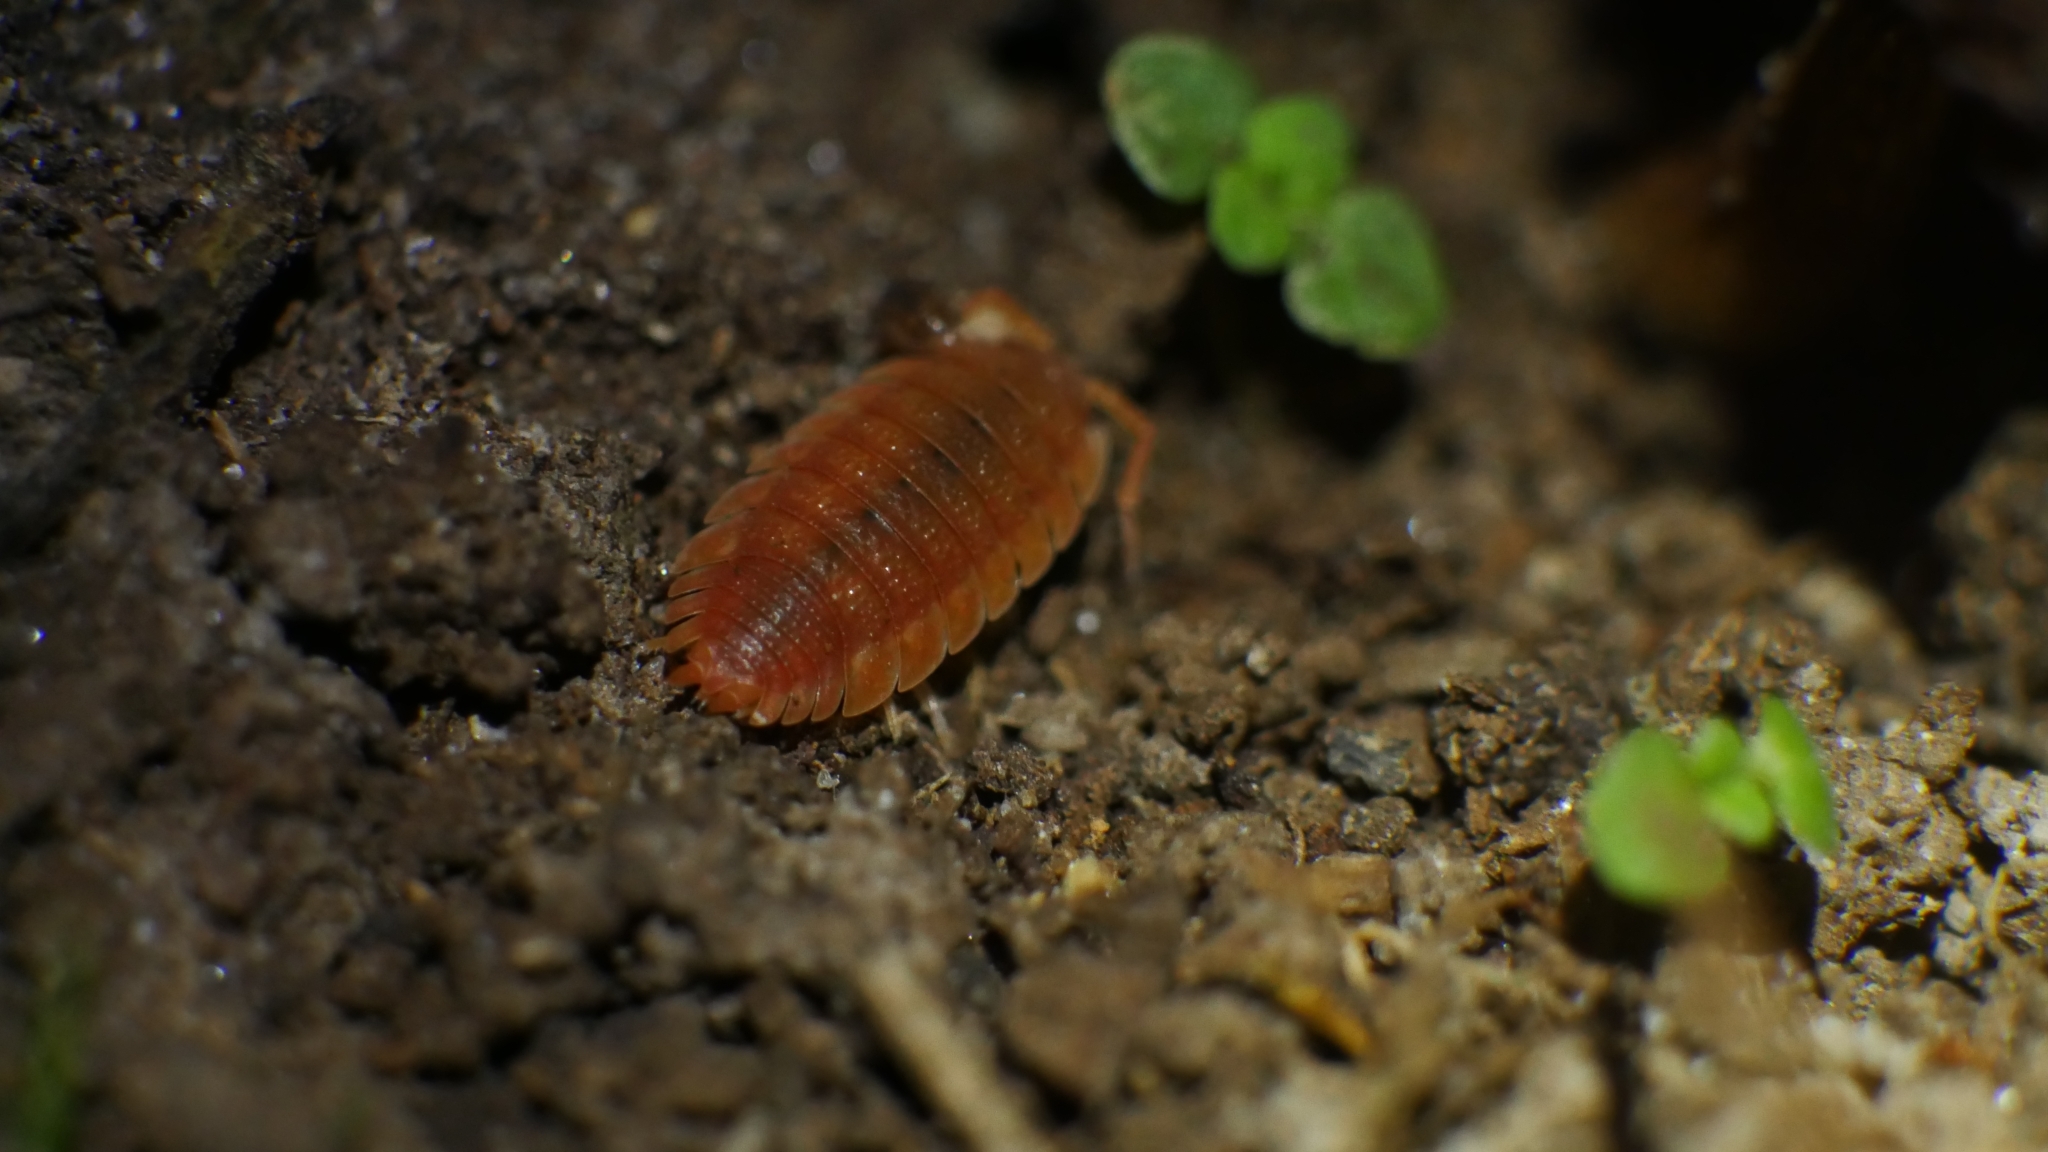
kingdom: Animalia
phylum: Arthropoda
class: Malacostraca
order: Isopoda
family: Porcellionidae
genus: Porcellio
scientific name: Porcellio scaber
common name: Common rough woodlouse
